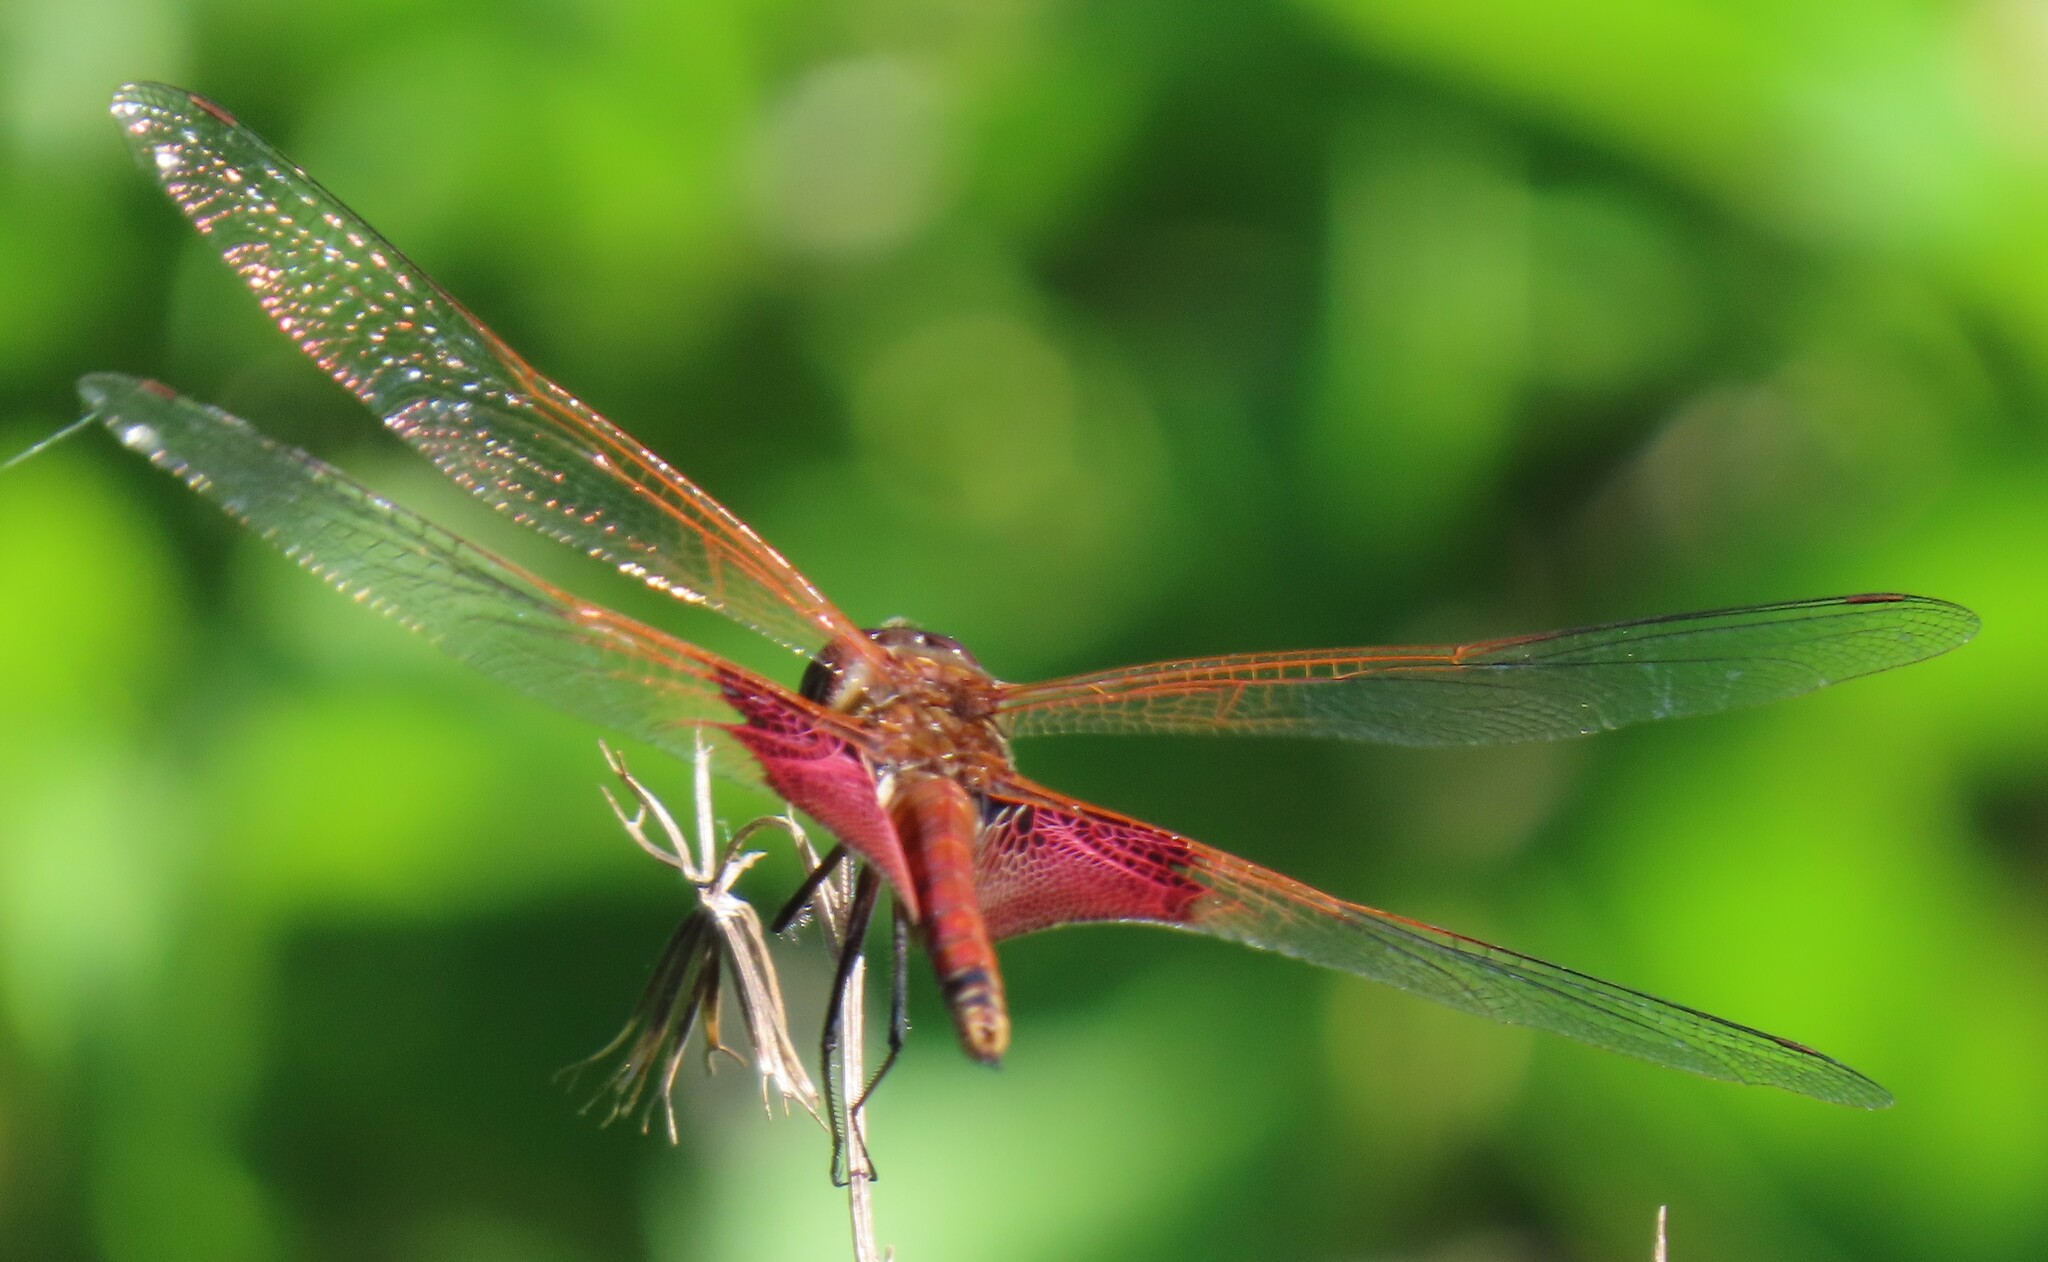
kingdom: Animalia
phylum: Arthropoda
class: Insecta
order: Odonata
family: Libellulidae
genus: Tramea
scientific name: Tramea carolina
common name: Carolina saddlebags
